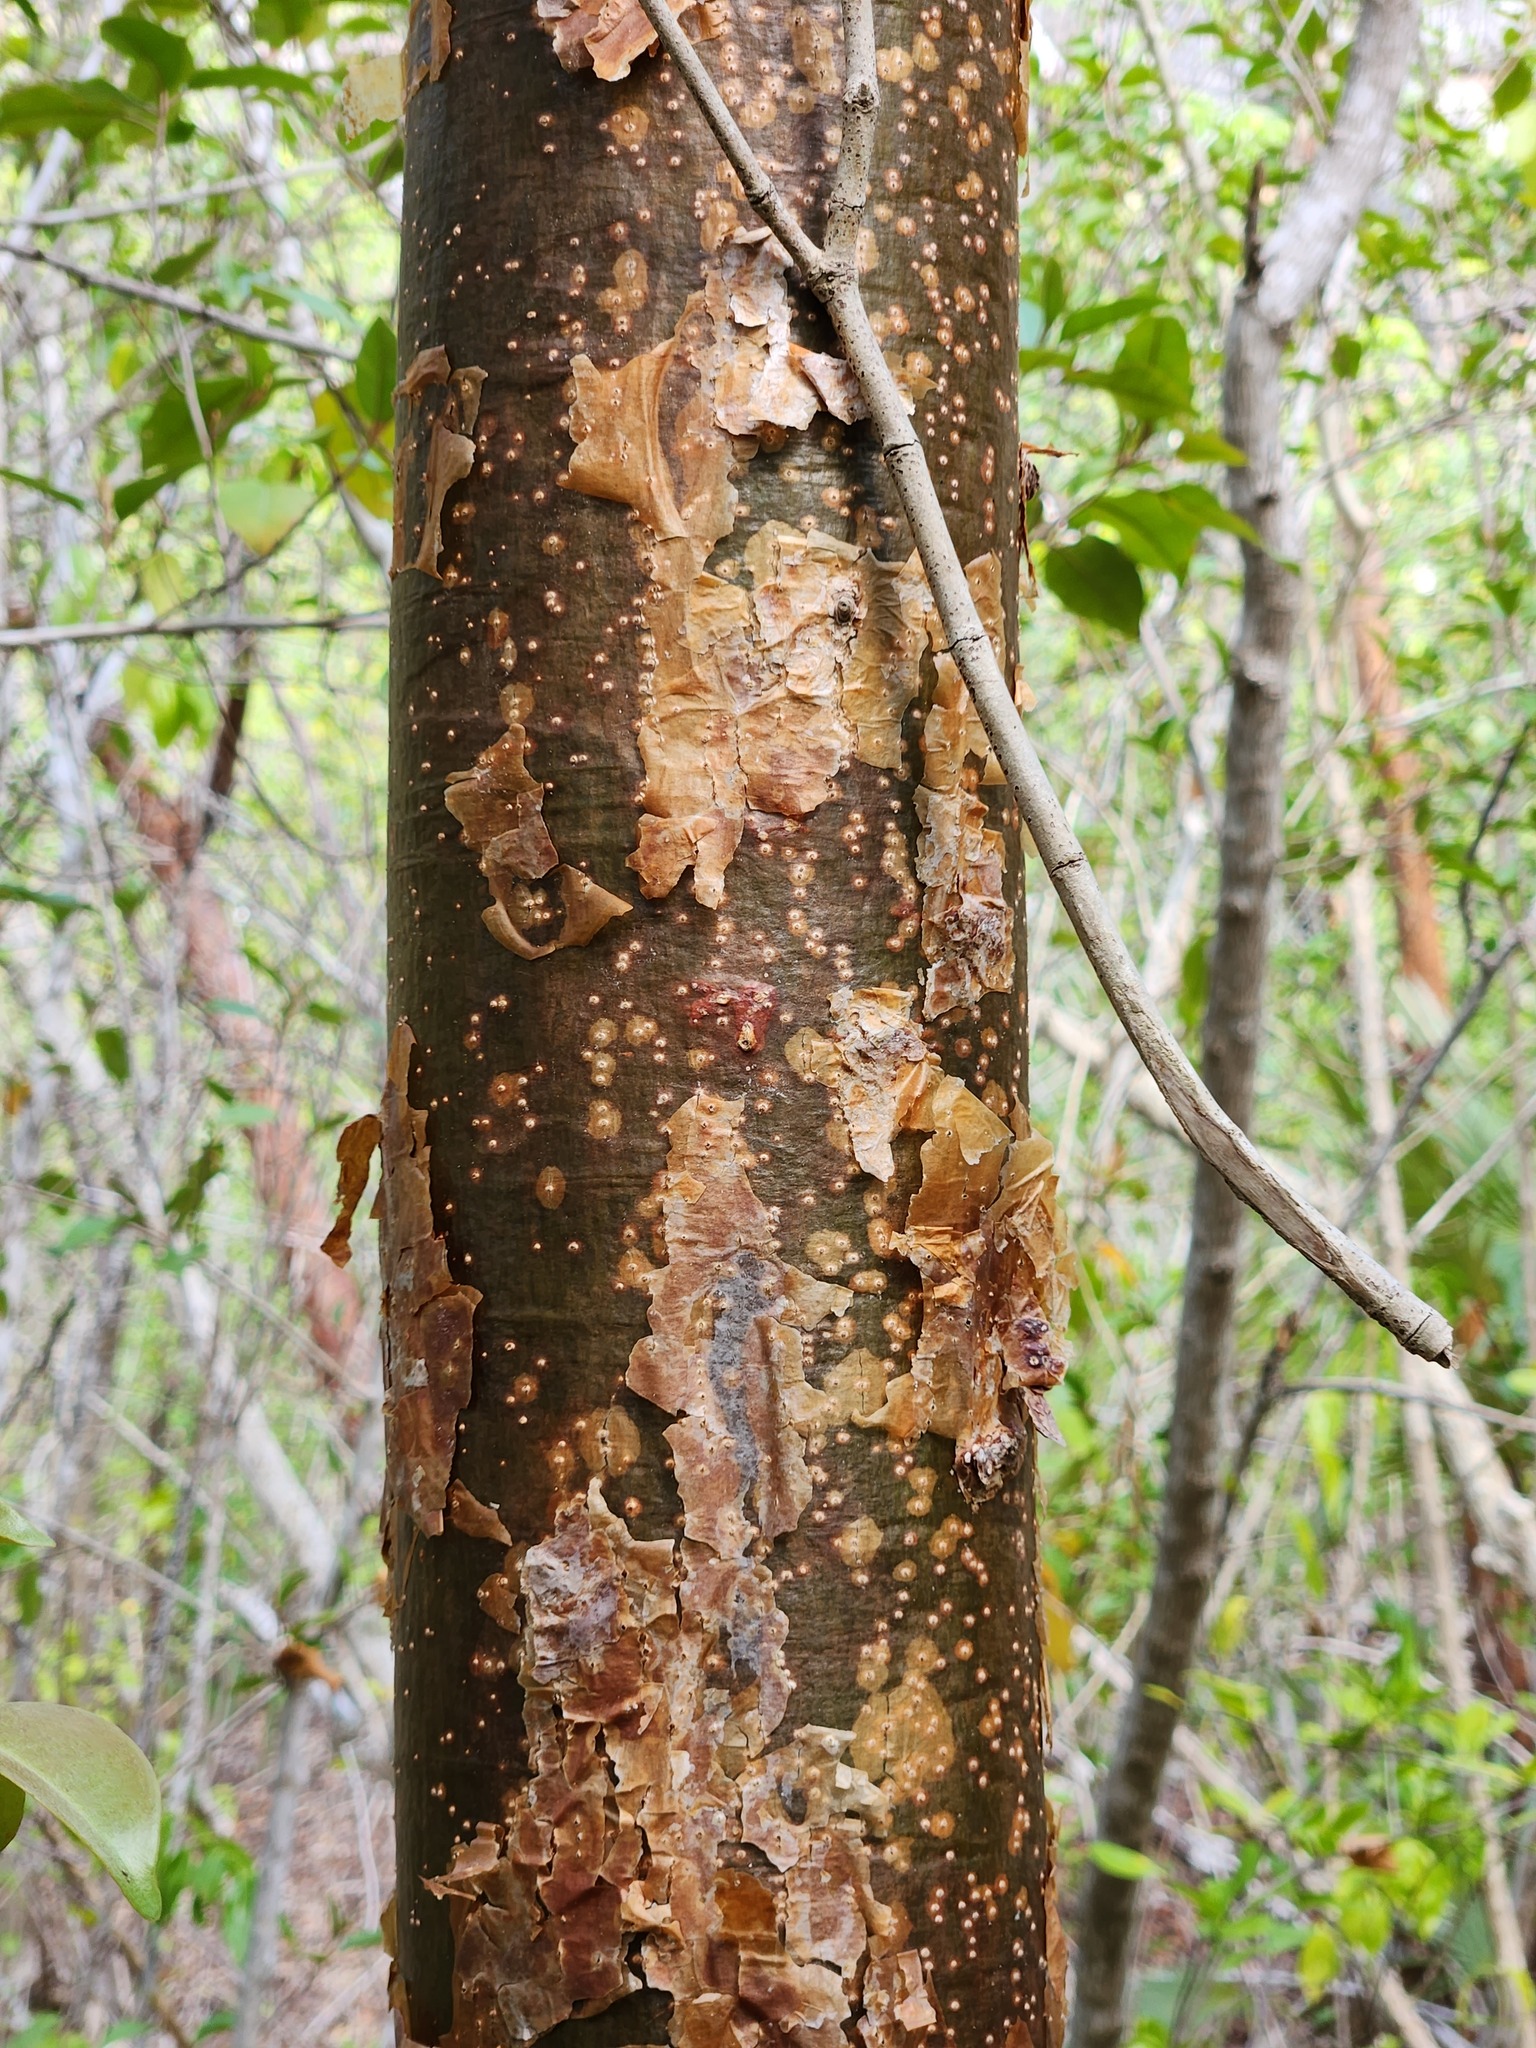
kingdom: Plantae
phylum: Tracheophyta
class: Magnoliopsida
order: Sapindales
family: Burseraceae
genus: Bursera
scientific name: Bursera simaruba
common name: Turpentine tree
